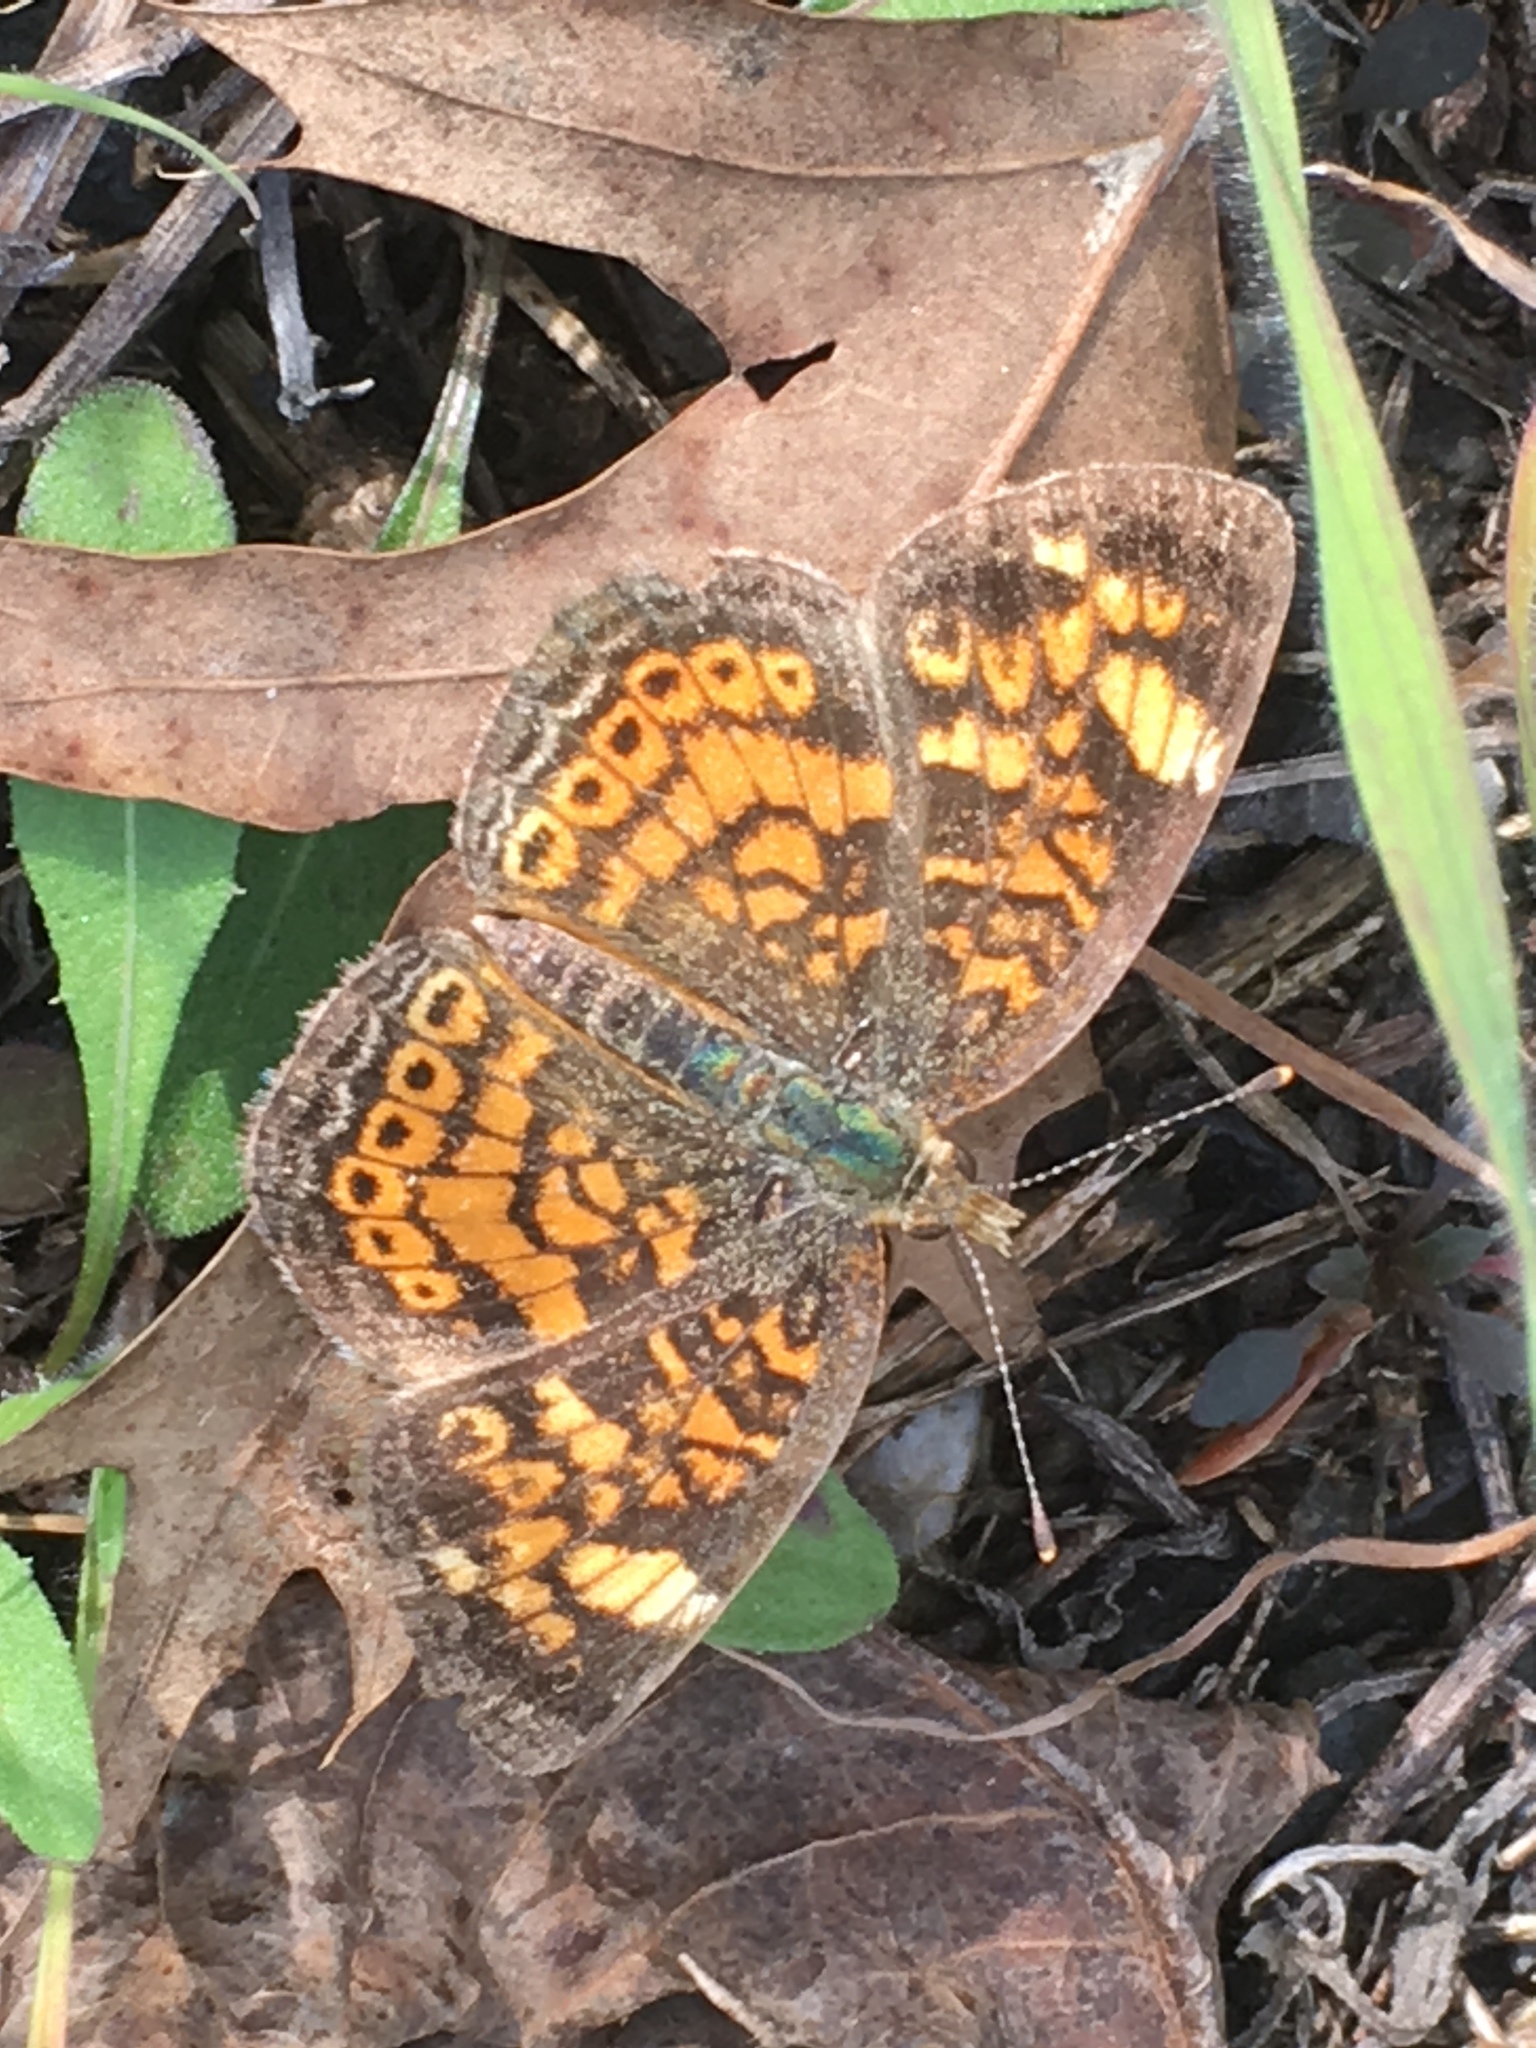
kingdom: Animalia
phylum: Arthropoda
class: Insecta
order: Lepidoptera
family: Nymphalidae
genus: Phyciodes
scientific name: Phyciodes tharos
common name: Pearl crescent
